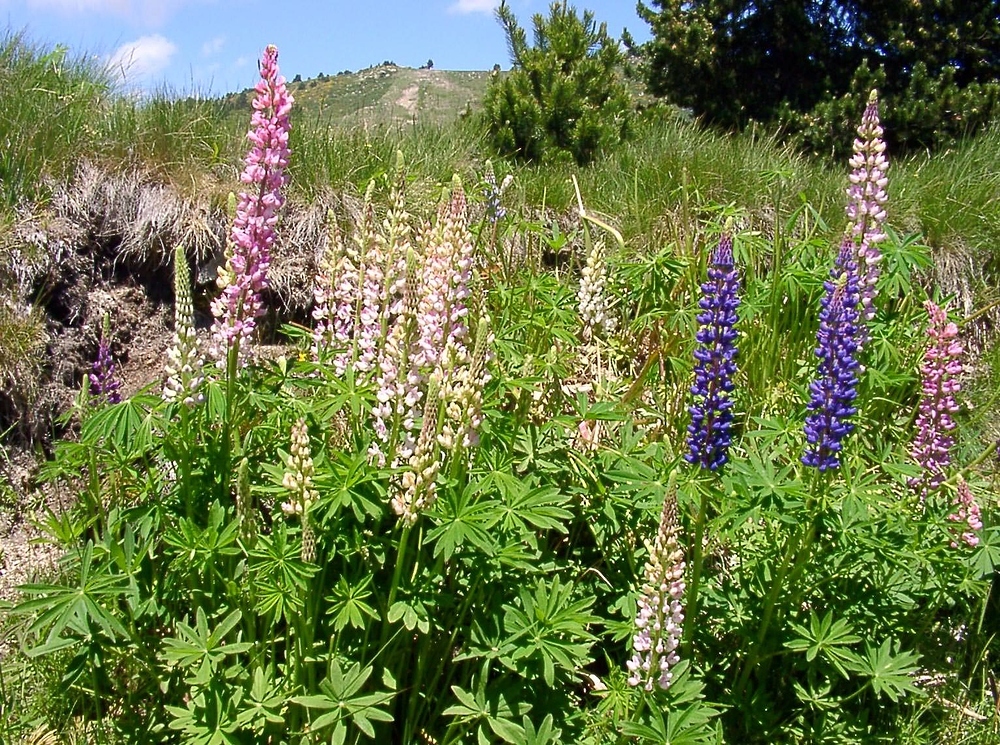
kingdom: Plantae
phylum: Tracheophyta
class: Magnoliopsida
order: Fabales
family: Fabaceae
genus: Lupinus
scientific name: Lupinus regalis
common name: Russell lupin
